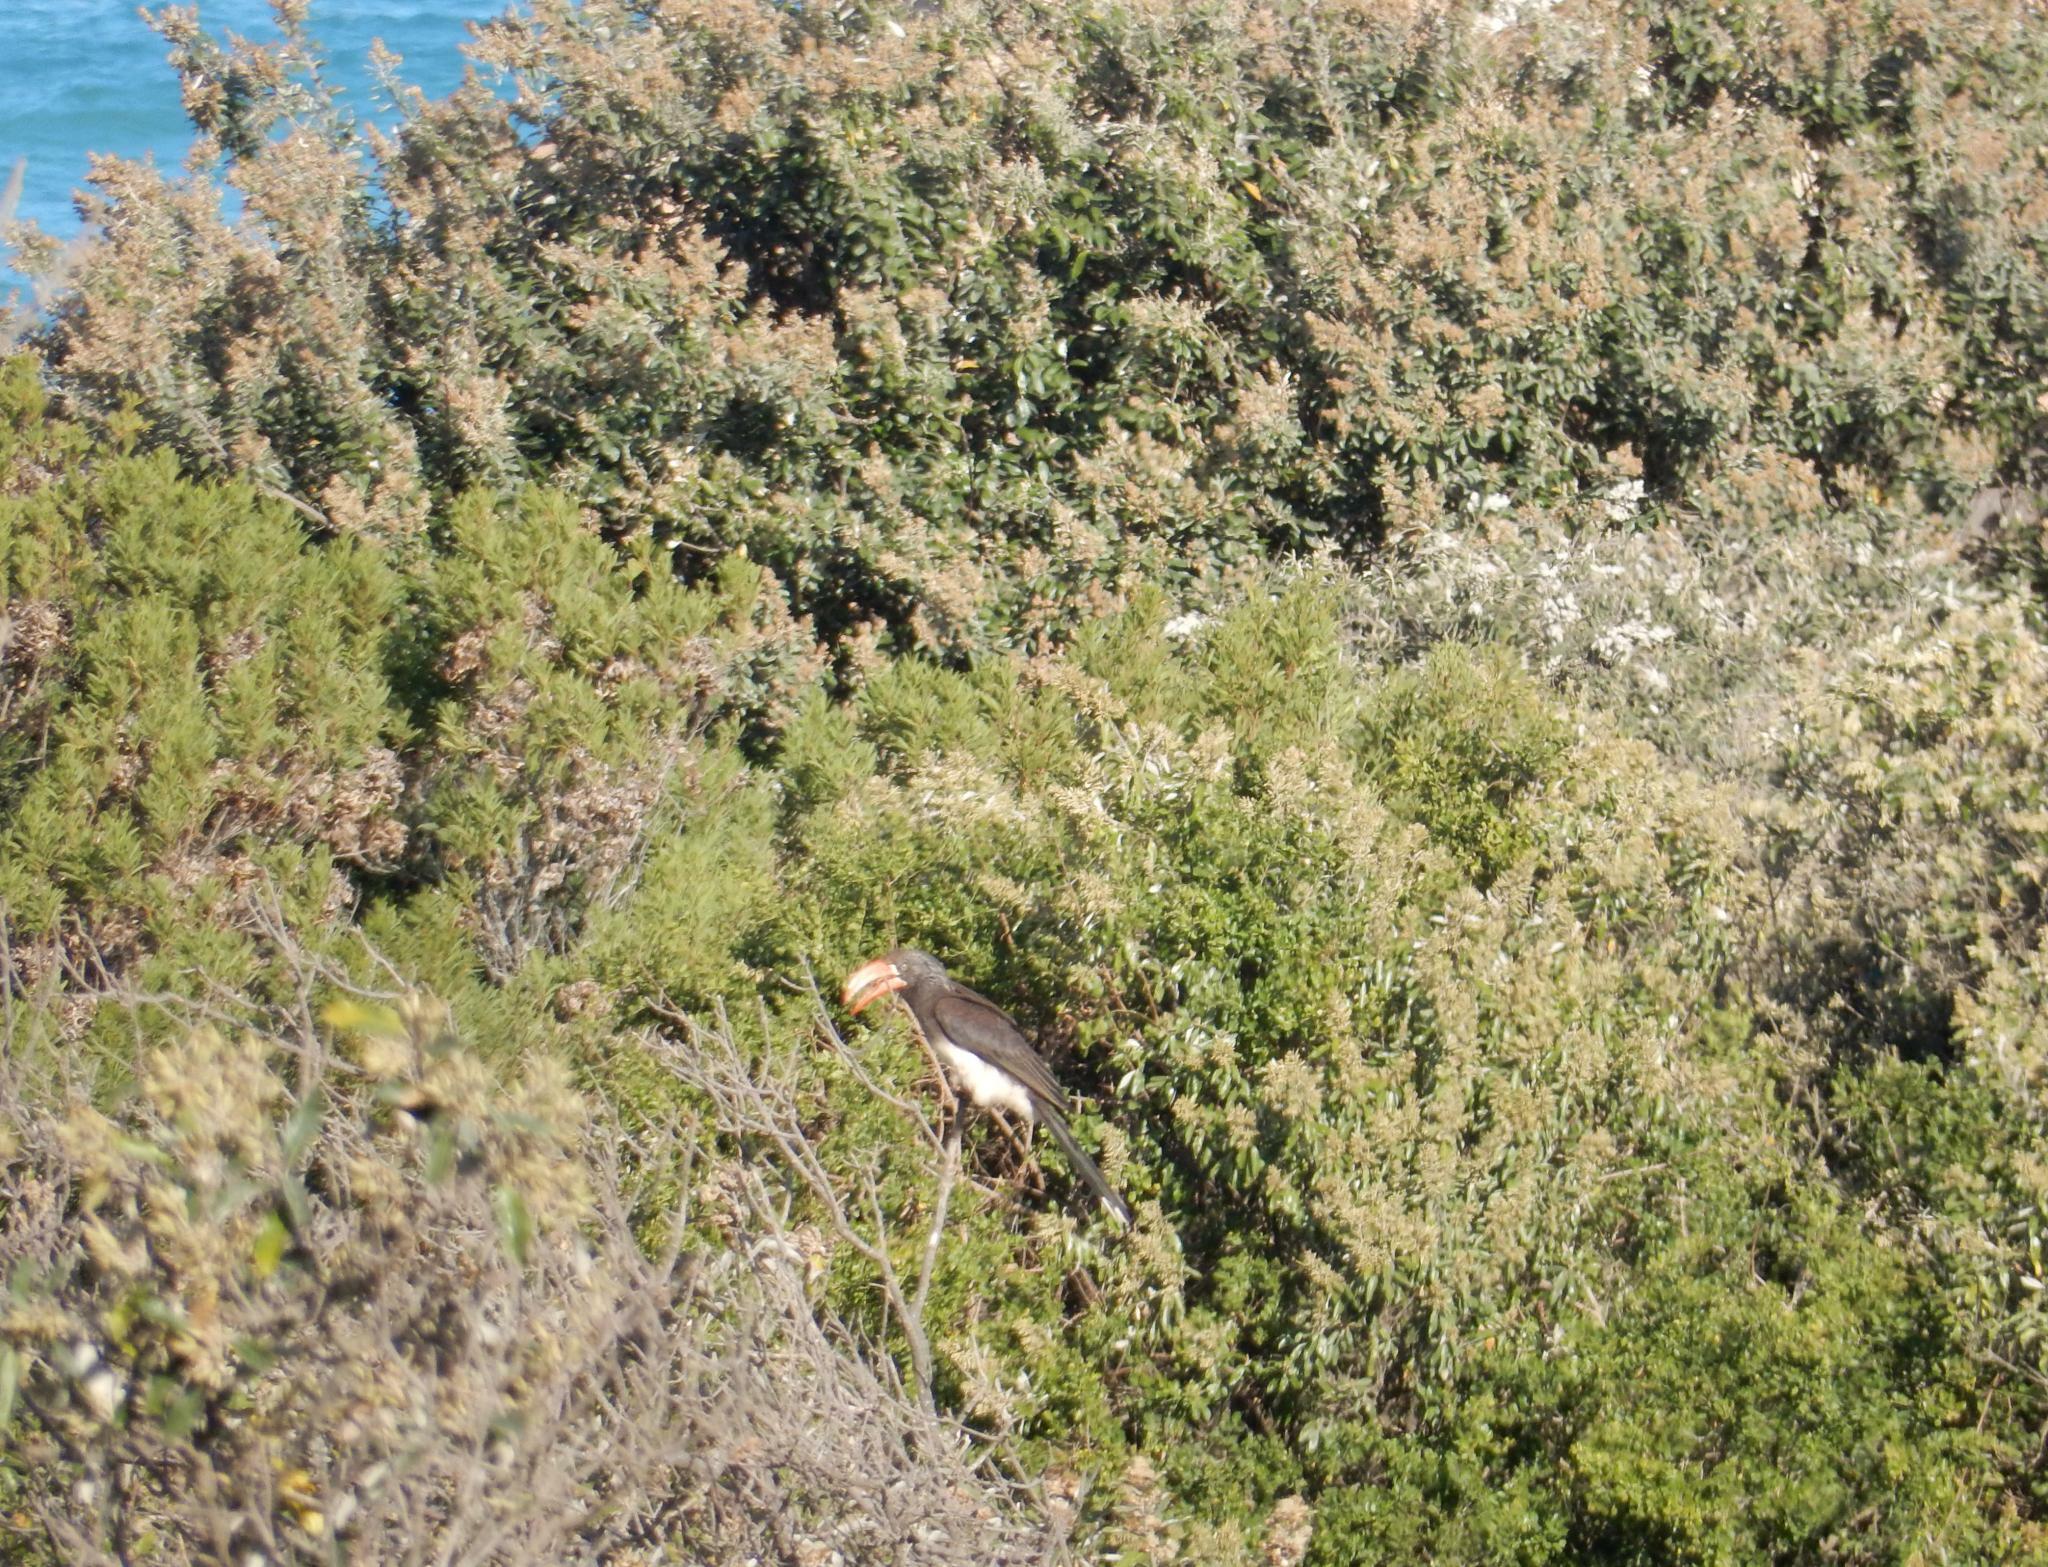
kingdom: Animalia
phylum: Chordata
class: Aves
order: Bucerotiformes
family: Bucerotidae
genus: Lophoceros
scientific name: Lophoceros alboterminatus
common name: Crowned hornbill
